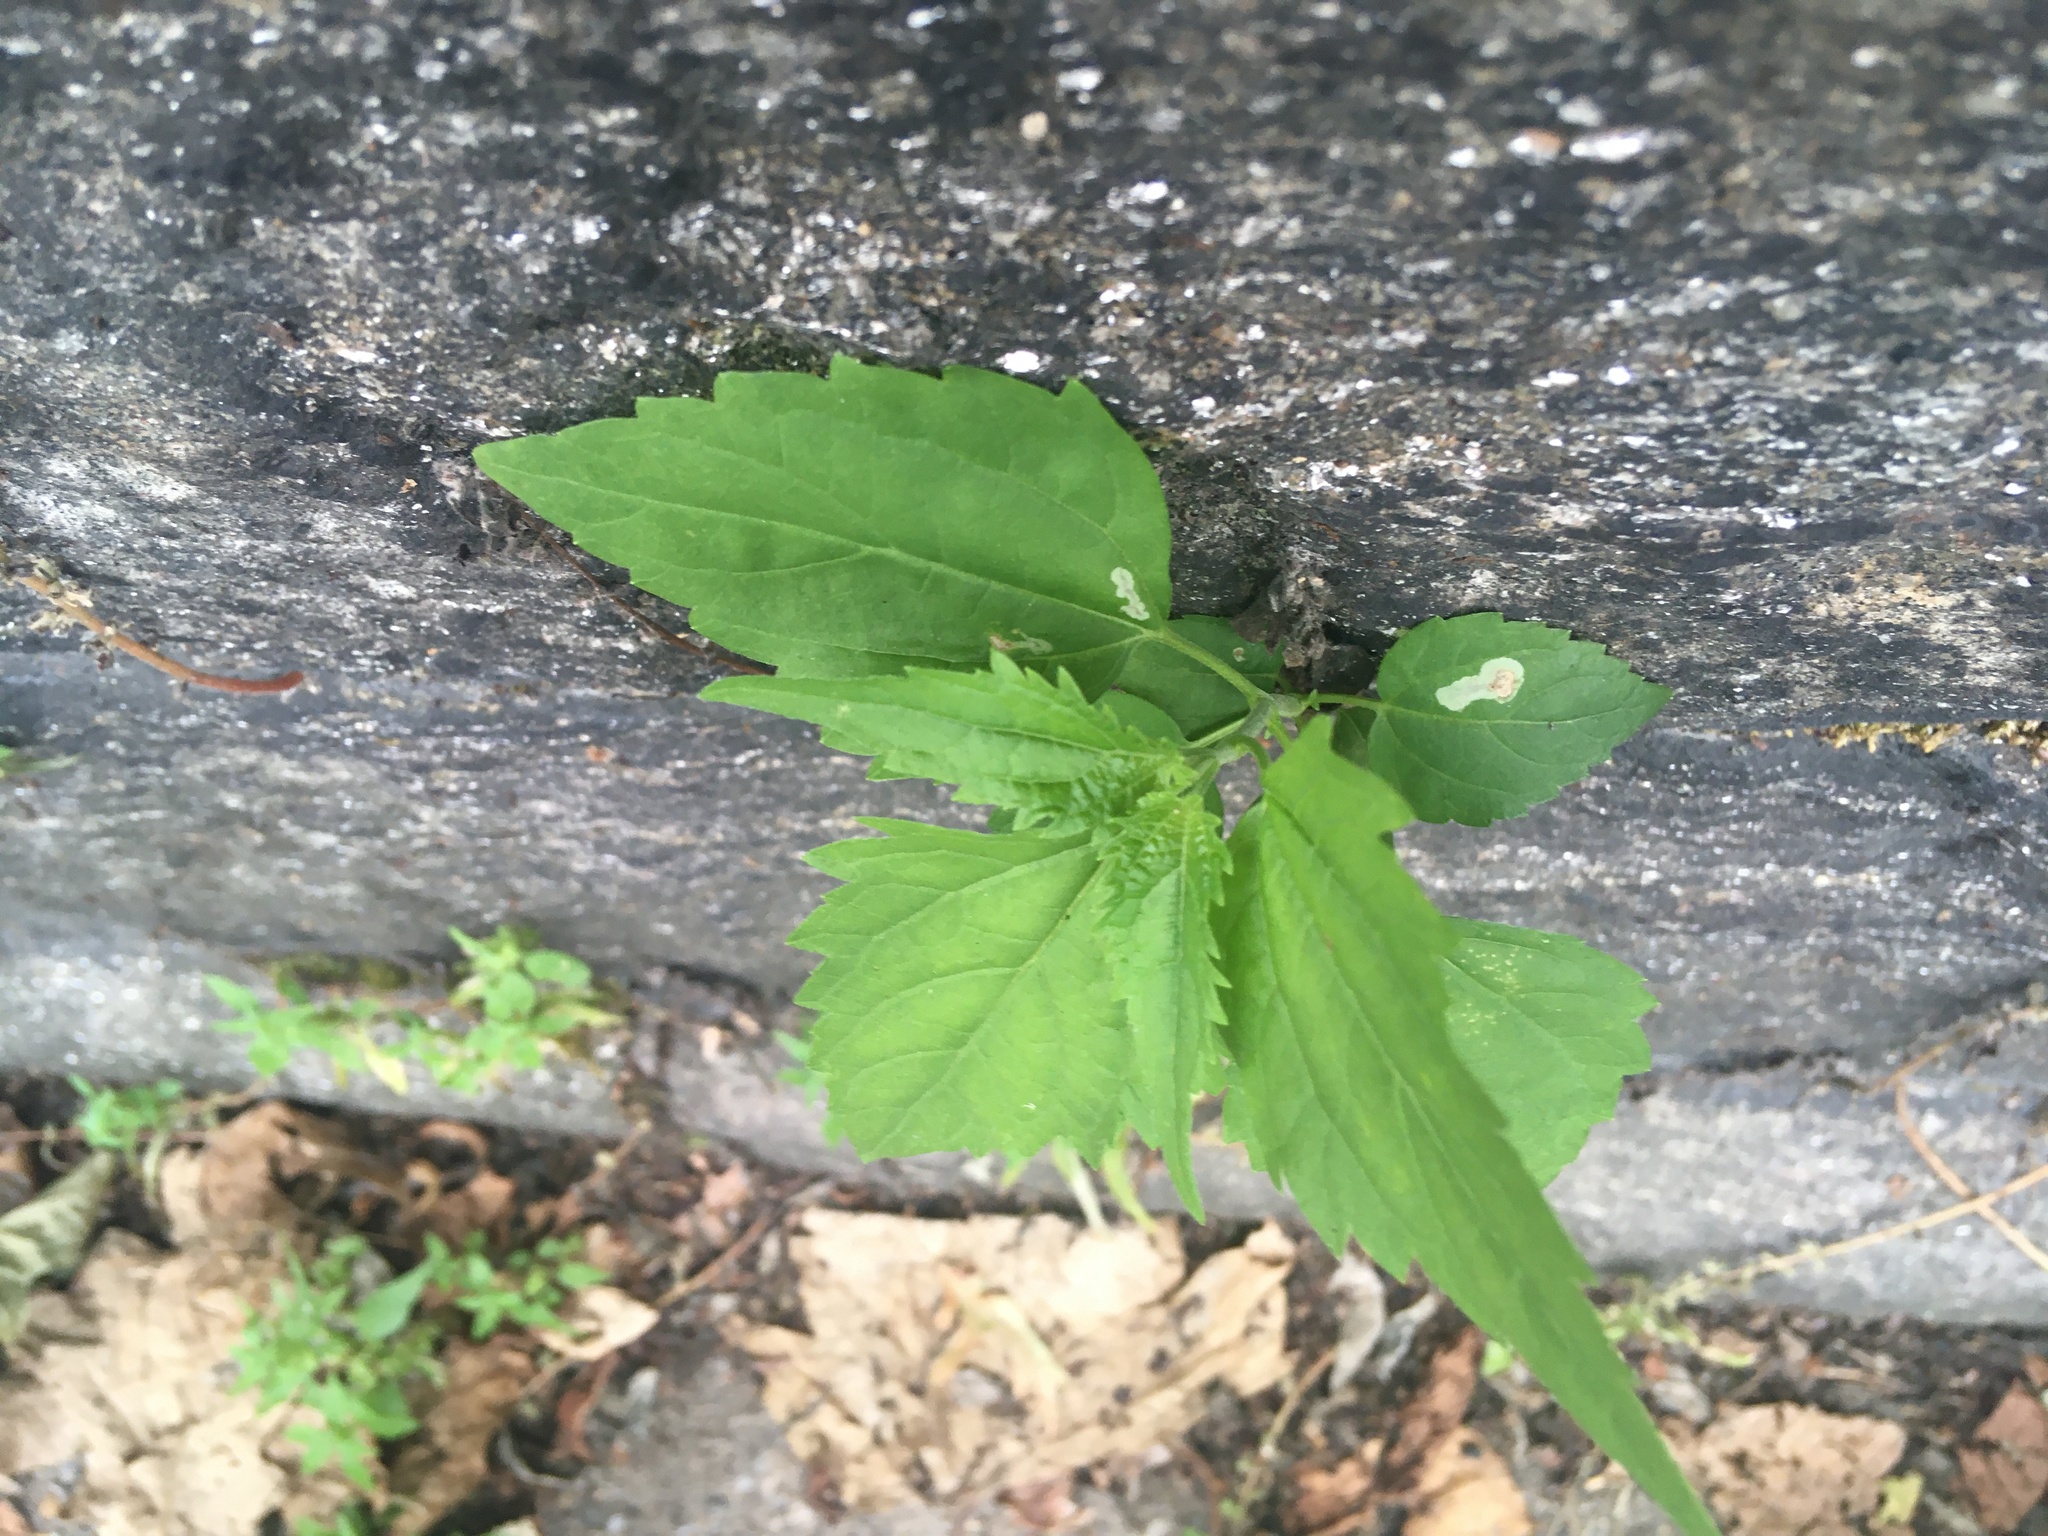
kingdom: Plantae
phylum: Tracheophyta
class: Magnoliopsida
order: Asterales
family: Asteraceae
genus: Ageratina
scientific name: Ageratina altissima
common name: White snakeroot
